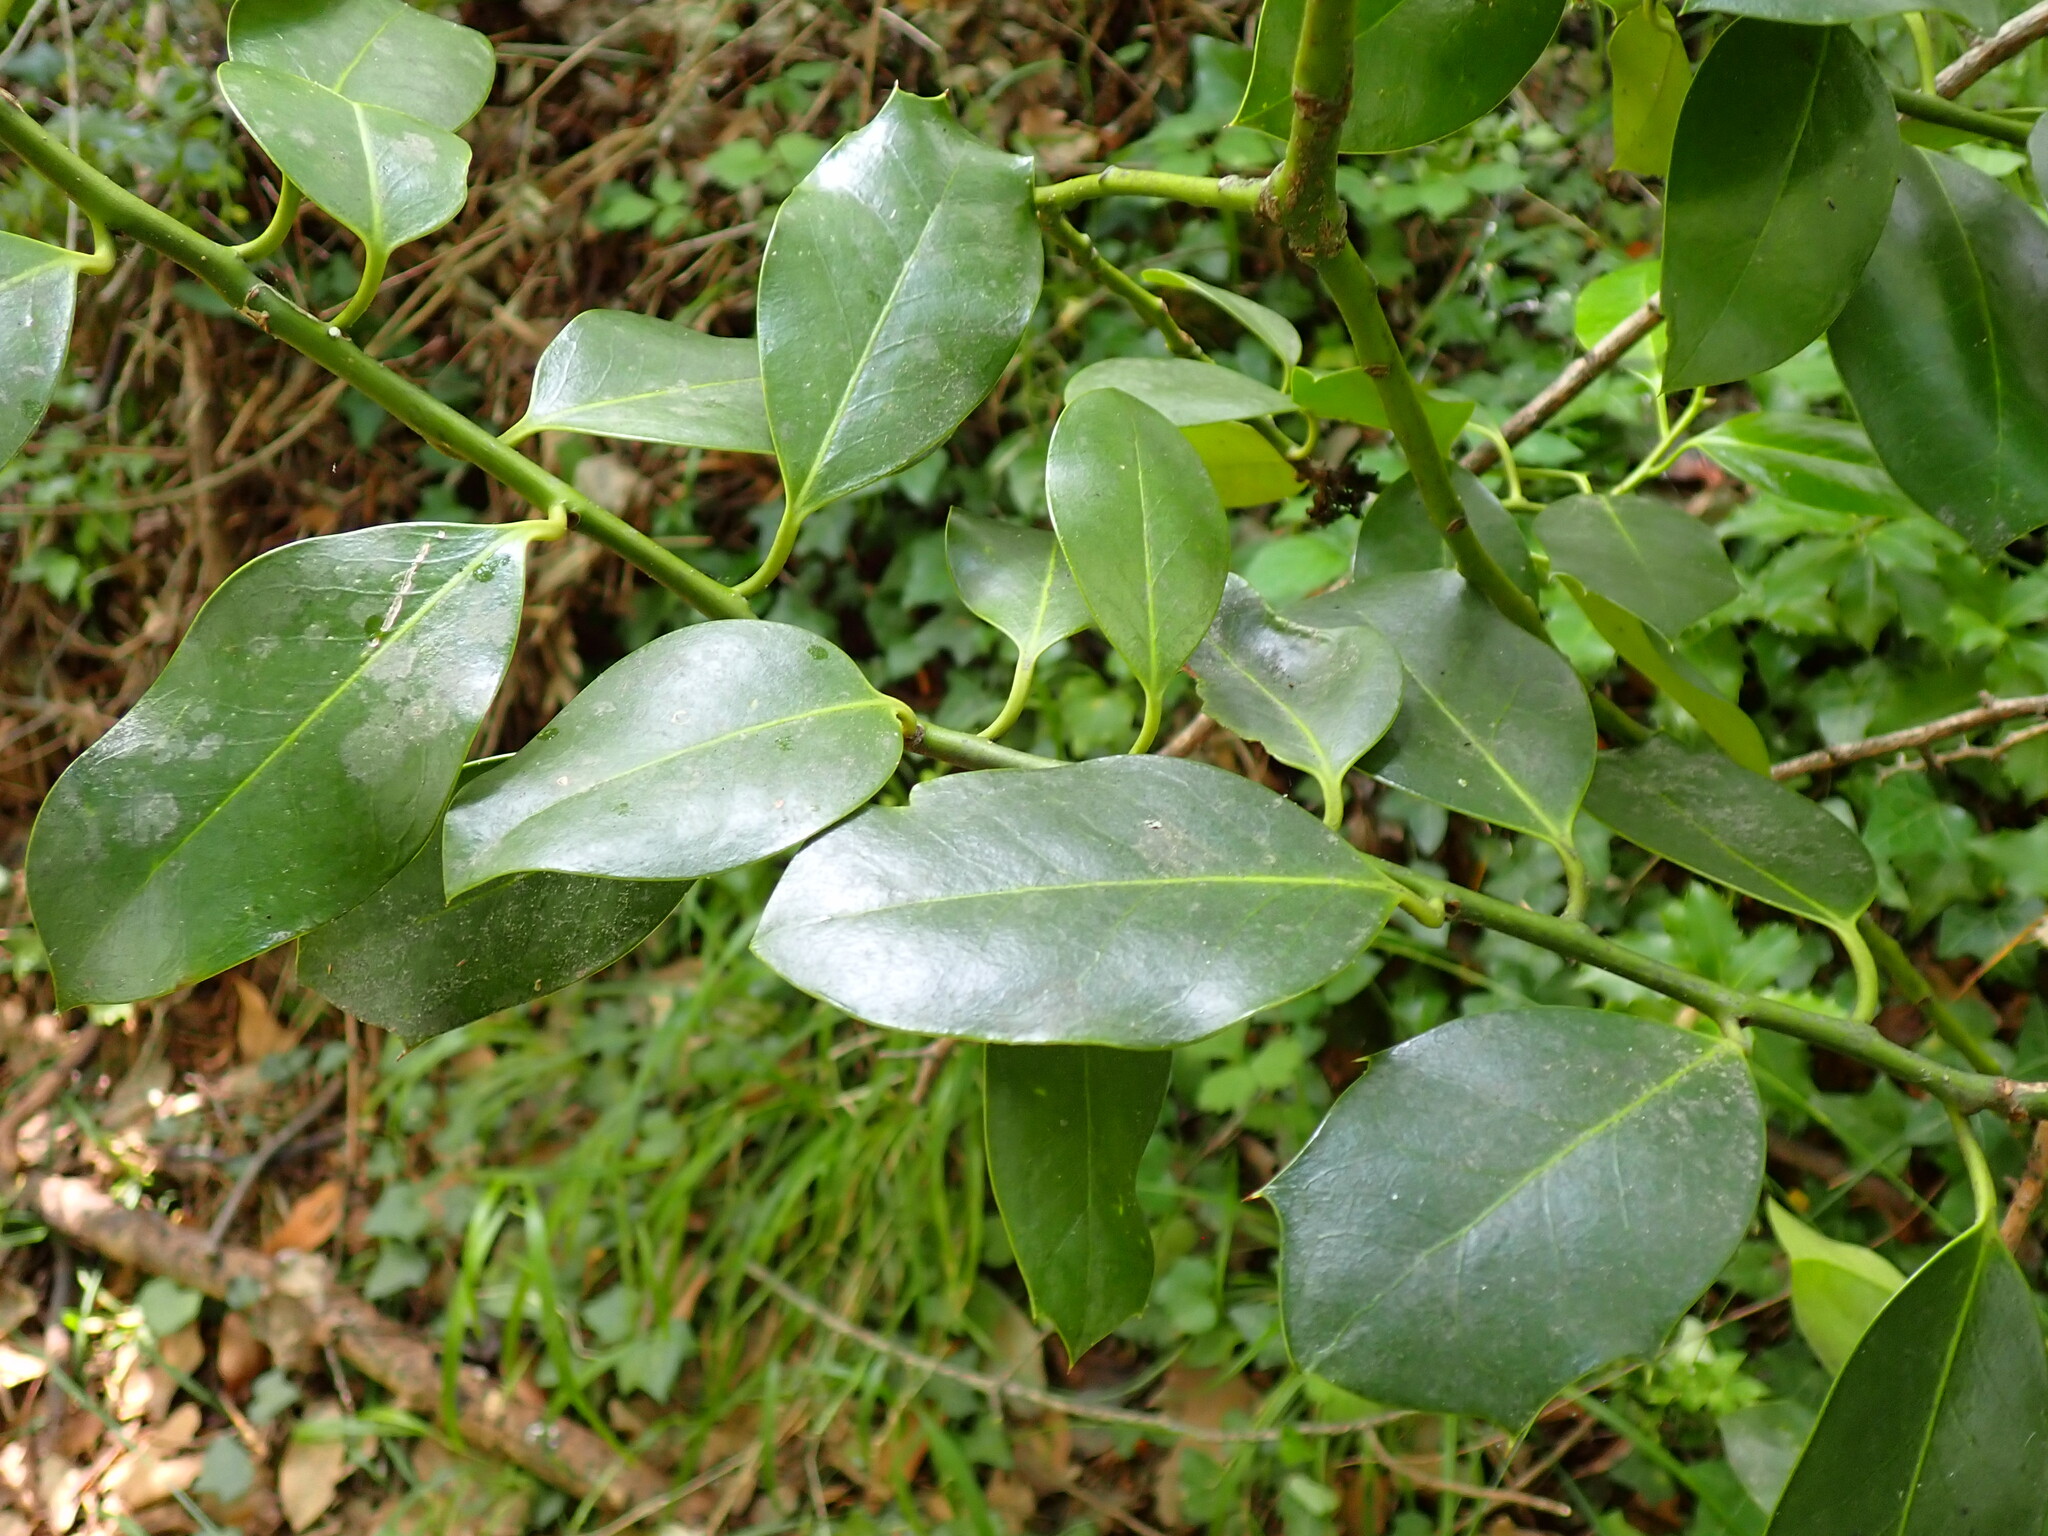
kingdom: Plantae
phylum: Tracheophyta
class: Magnoliopsida
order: Aquifoliales
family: Aquifoliaceae
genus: Ilex
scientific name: Ilex aquifolium
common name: English holly
